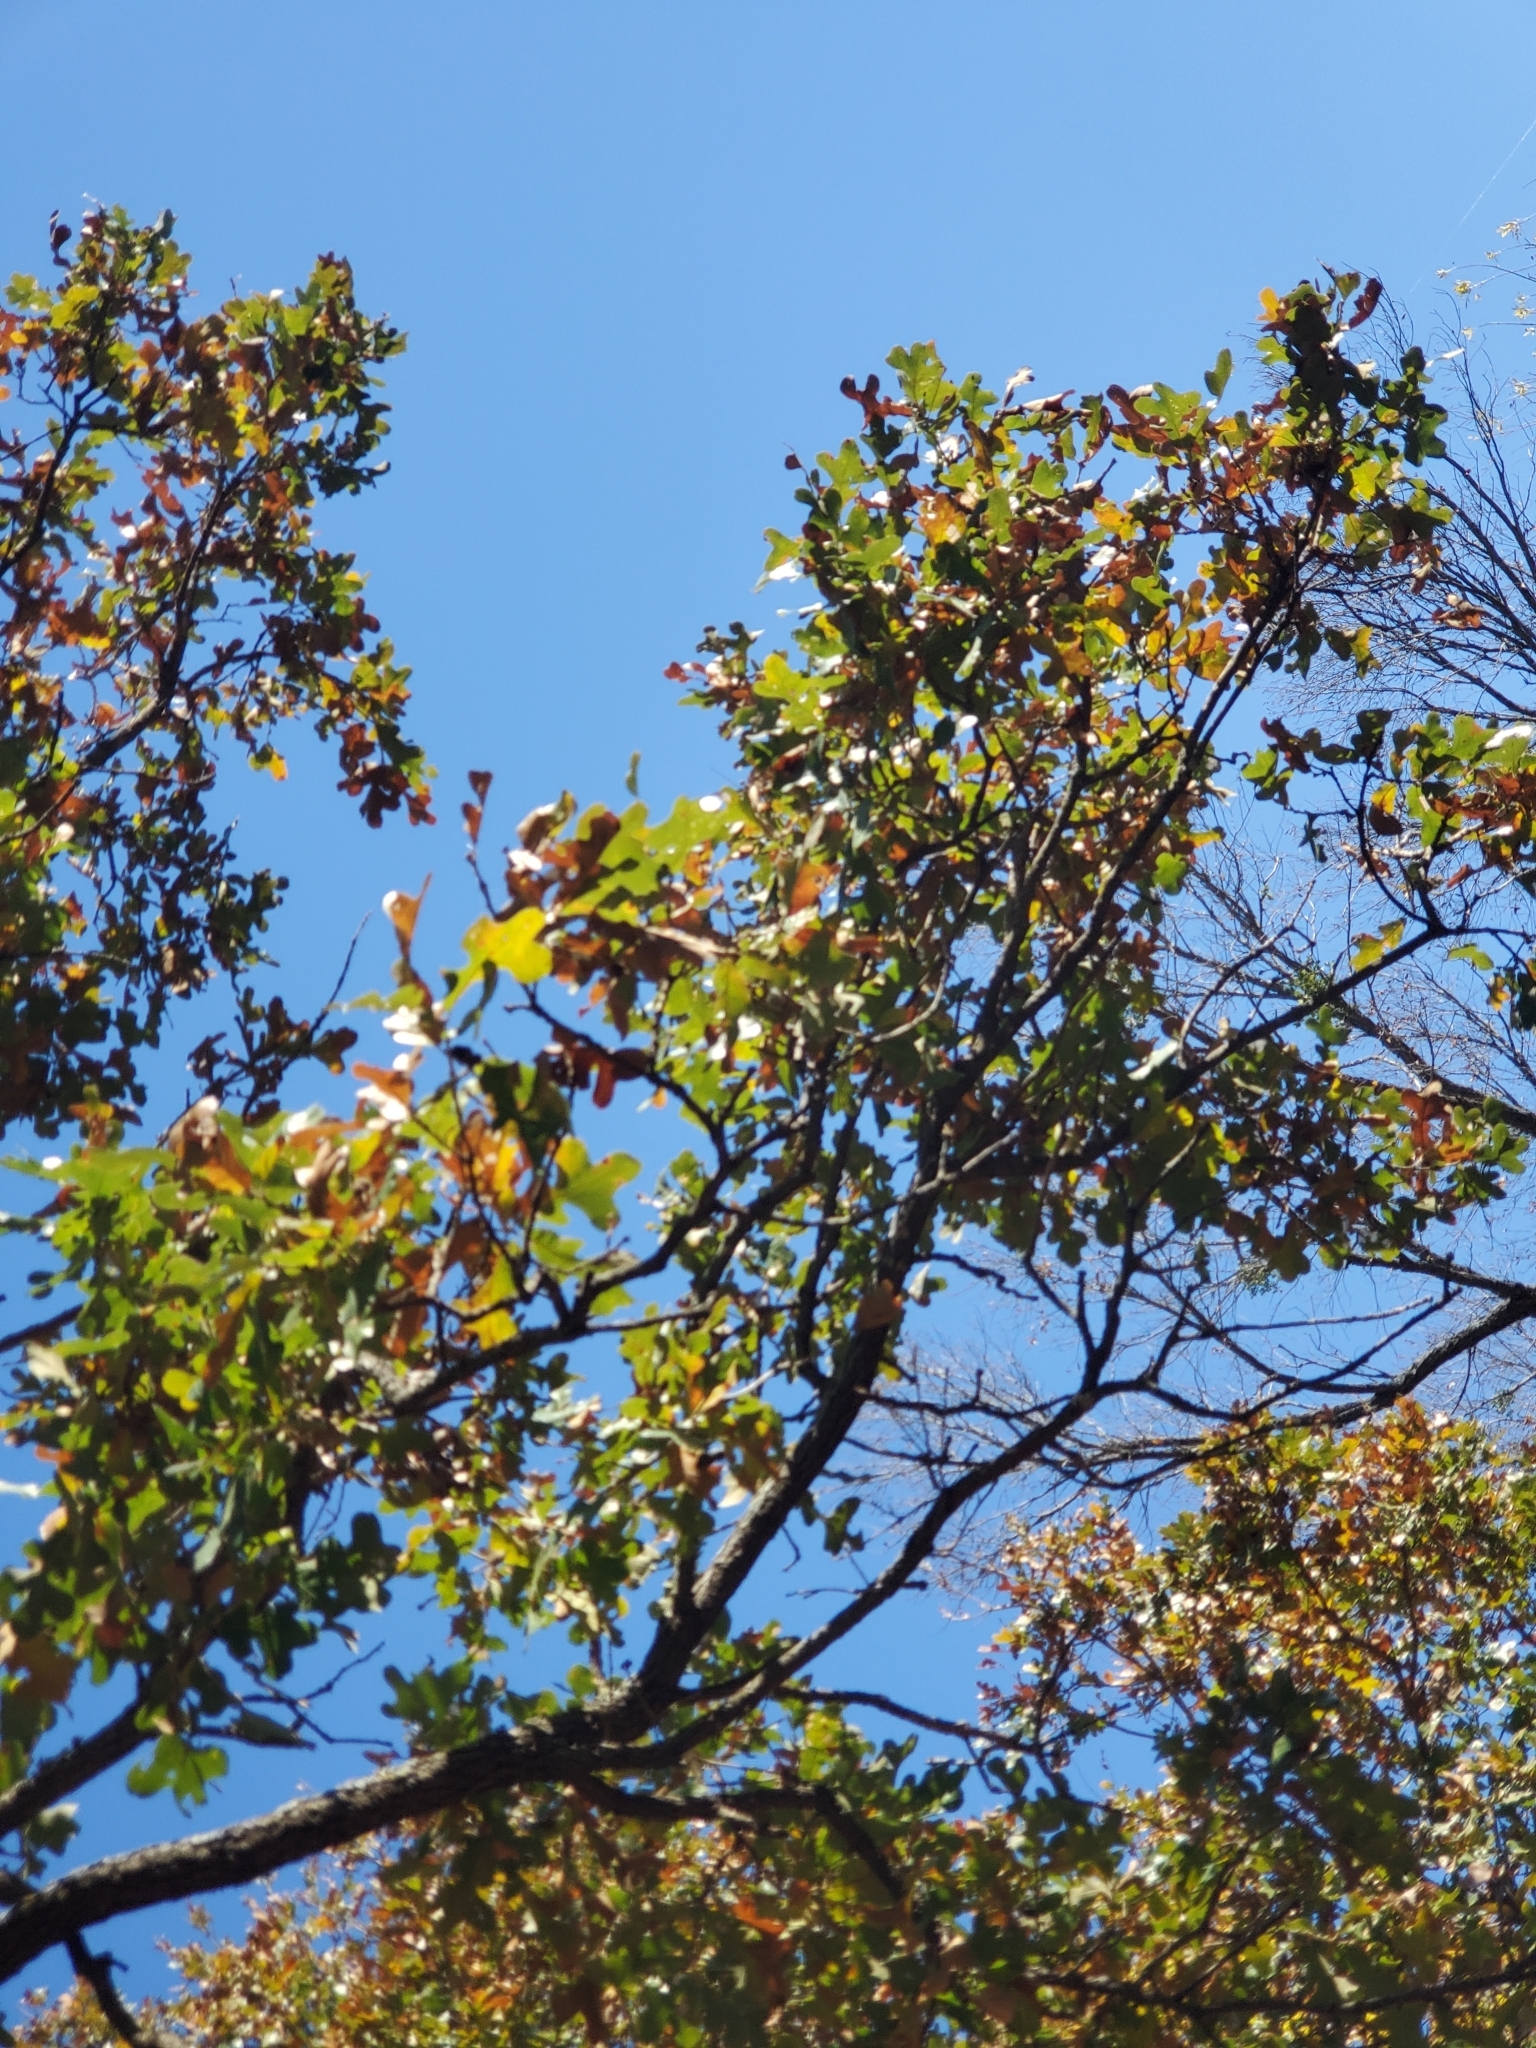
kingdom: Plantae
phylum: Tracheophyta
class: Magnoliopsida
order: Fagales
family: Fagaceae
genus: Quercus
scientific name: Quercus stellata
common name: Post oak
